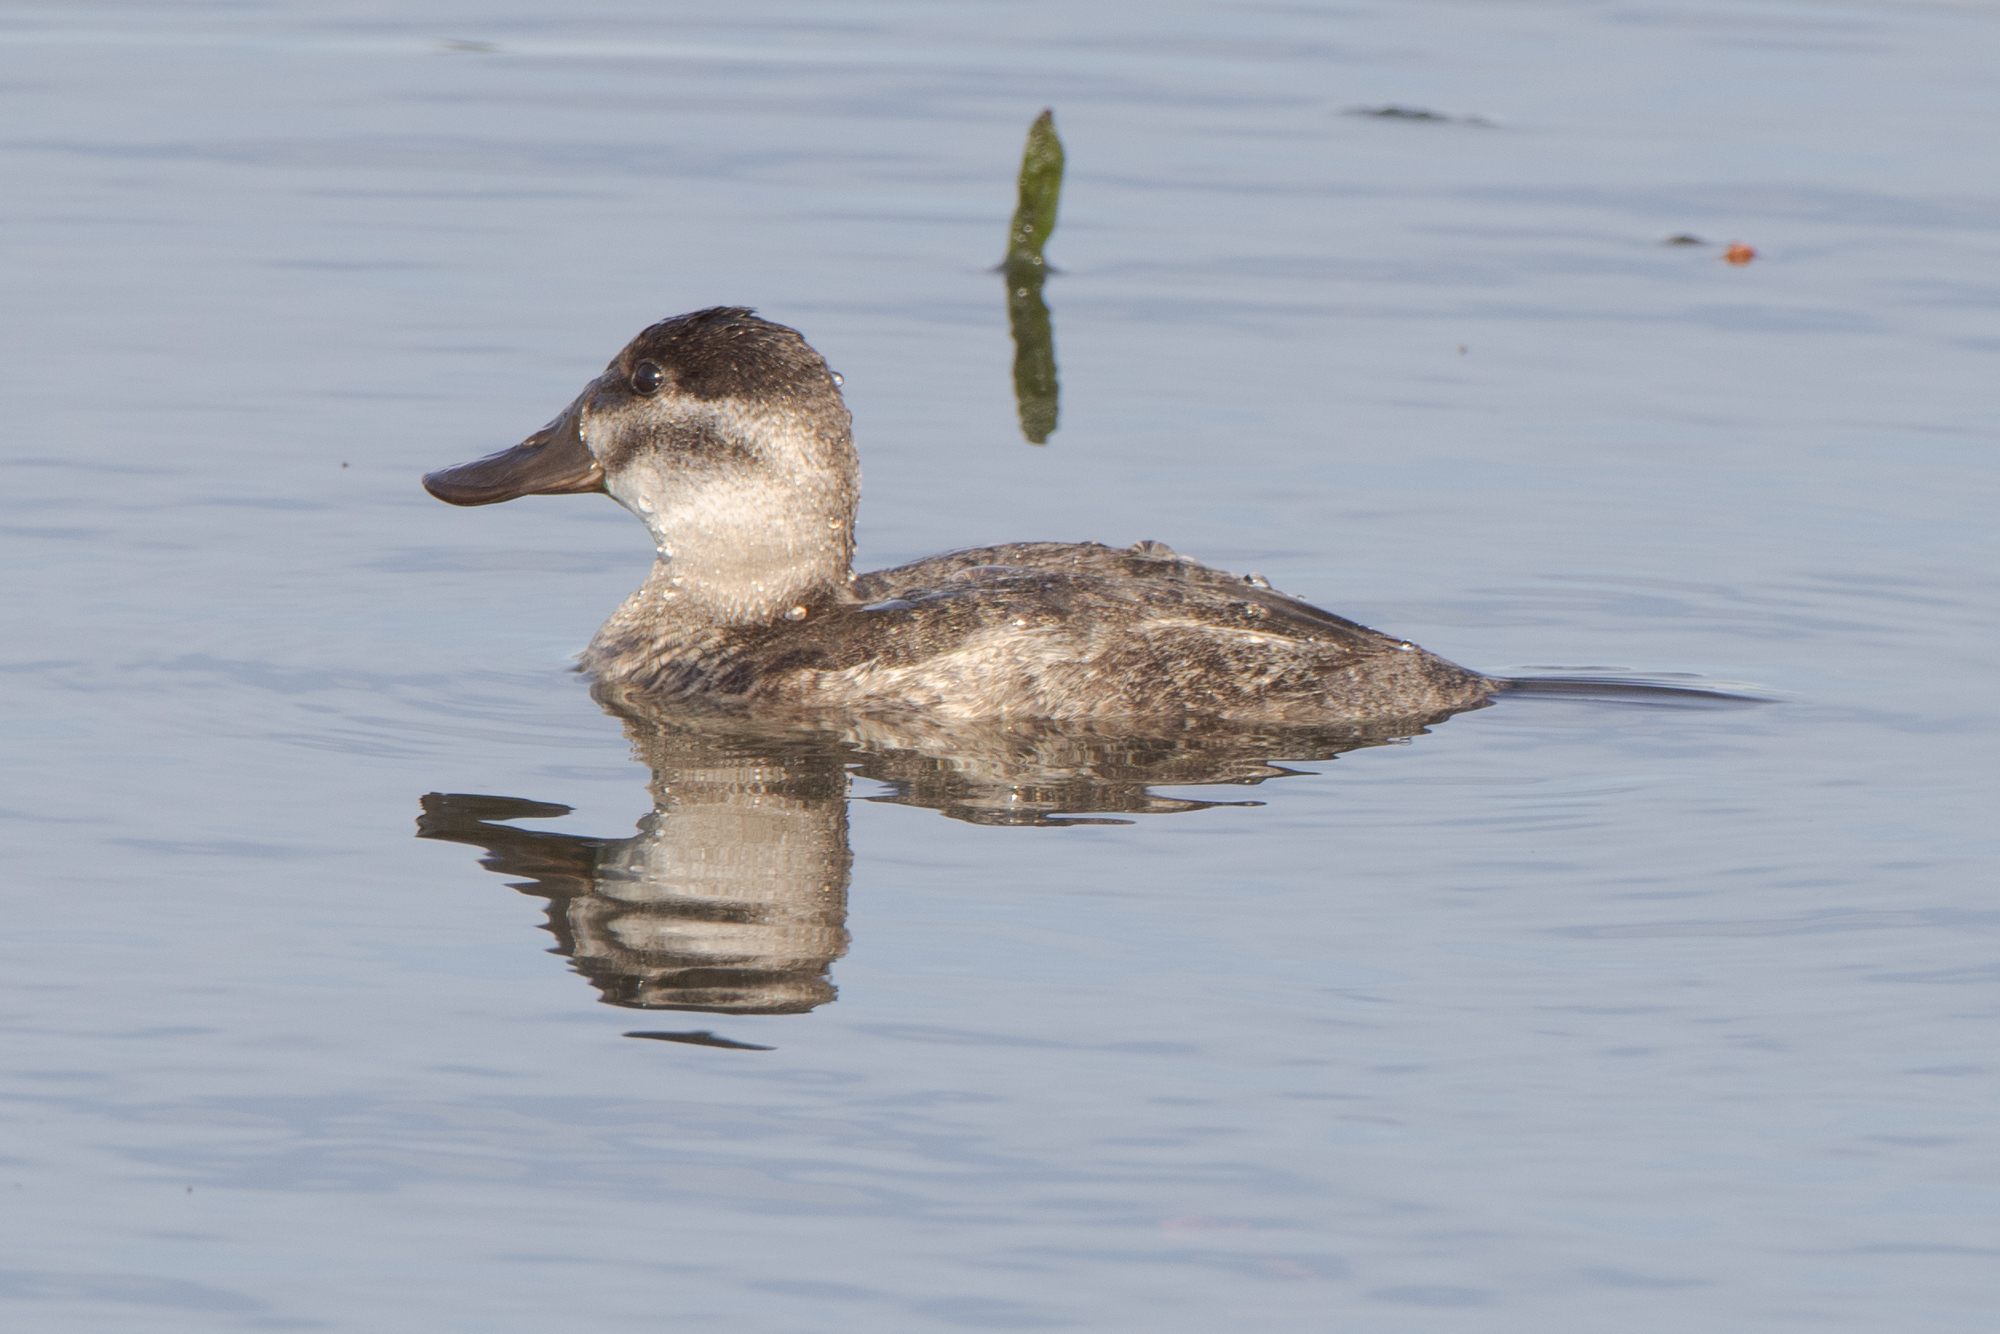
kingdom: Animalia
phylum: Chordata
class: Aves
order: Anseriformes
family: Anatidae
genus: Oxyura
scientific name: Oxyura jamaicensis
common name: Ruddy duck
